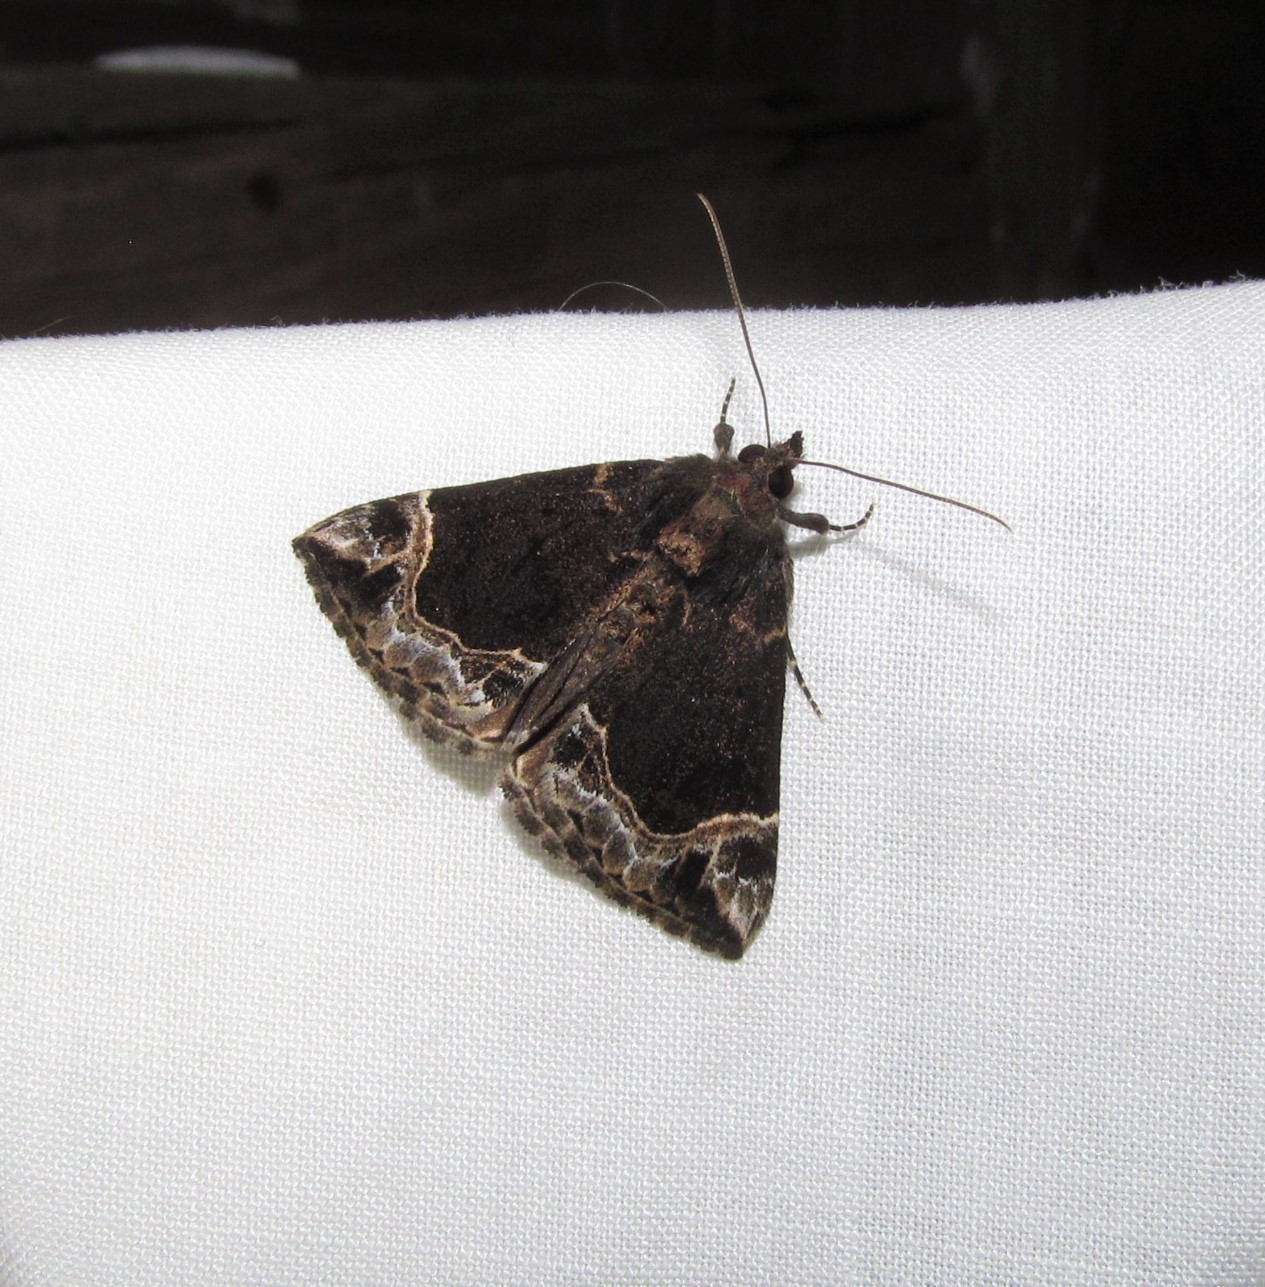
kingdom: Animalia
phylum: Arthropoda
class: Insecta
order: Lepidoptera
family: Erebidae
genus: Hypena
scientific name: Hypena abalienalis
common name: White-lined snout
